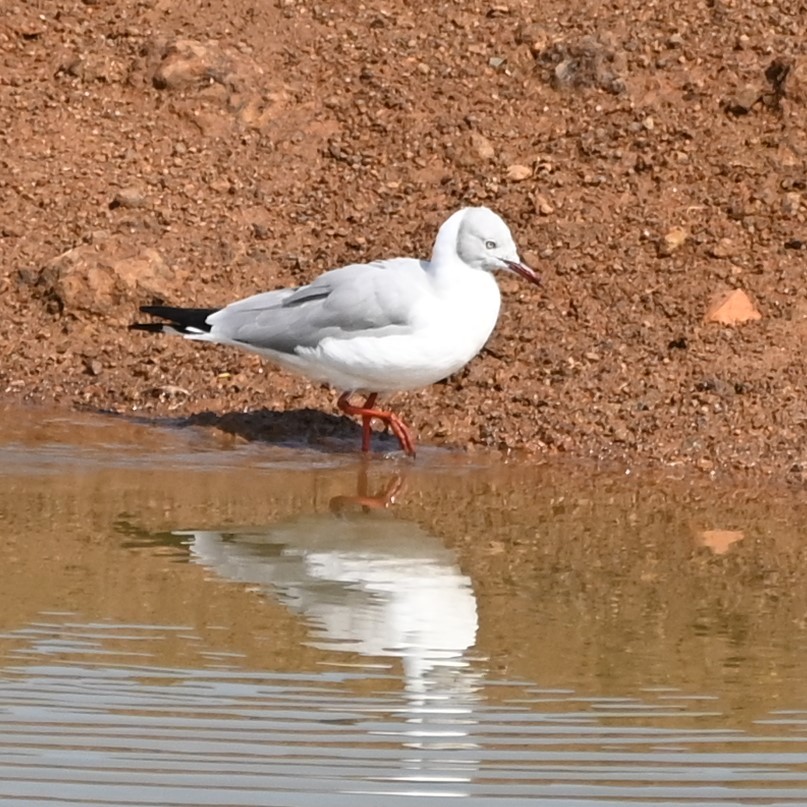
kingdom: Animalia
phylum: Chordata
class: Aves
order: Charadriiformes
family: Laridae
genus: Chroicocephalus
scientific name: Chroicocephalus cirrocephalus
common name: Grey-headed gull
